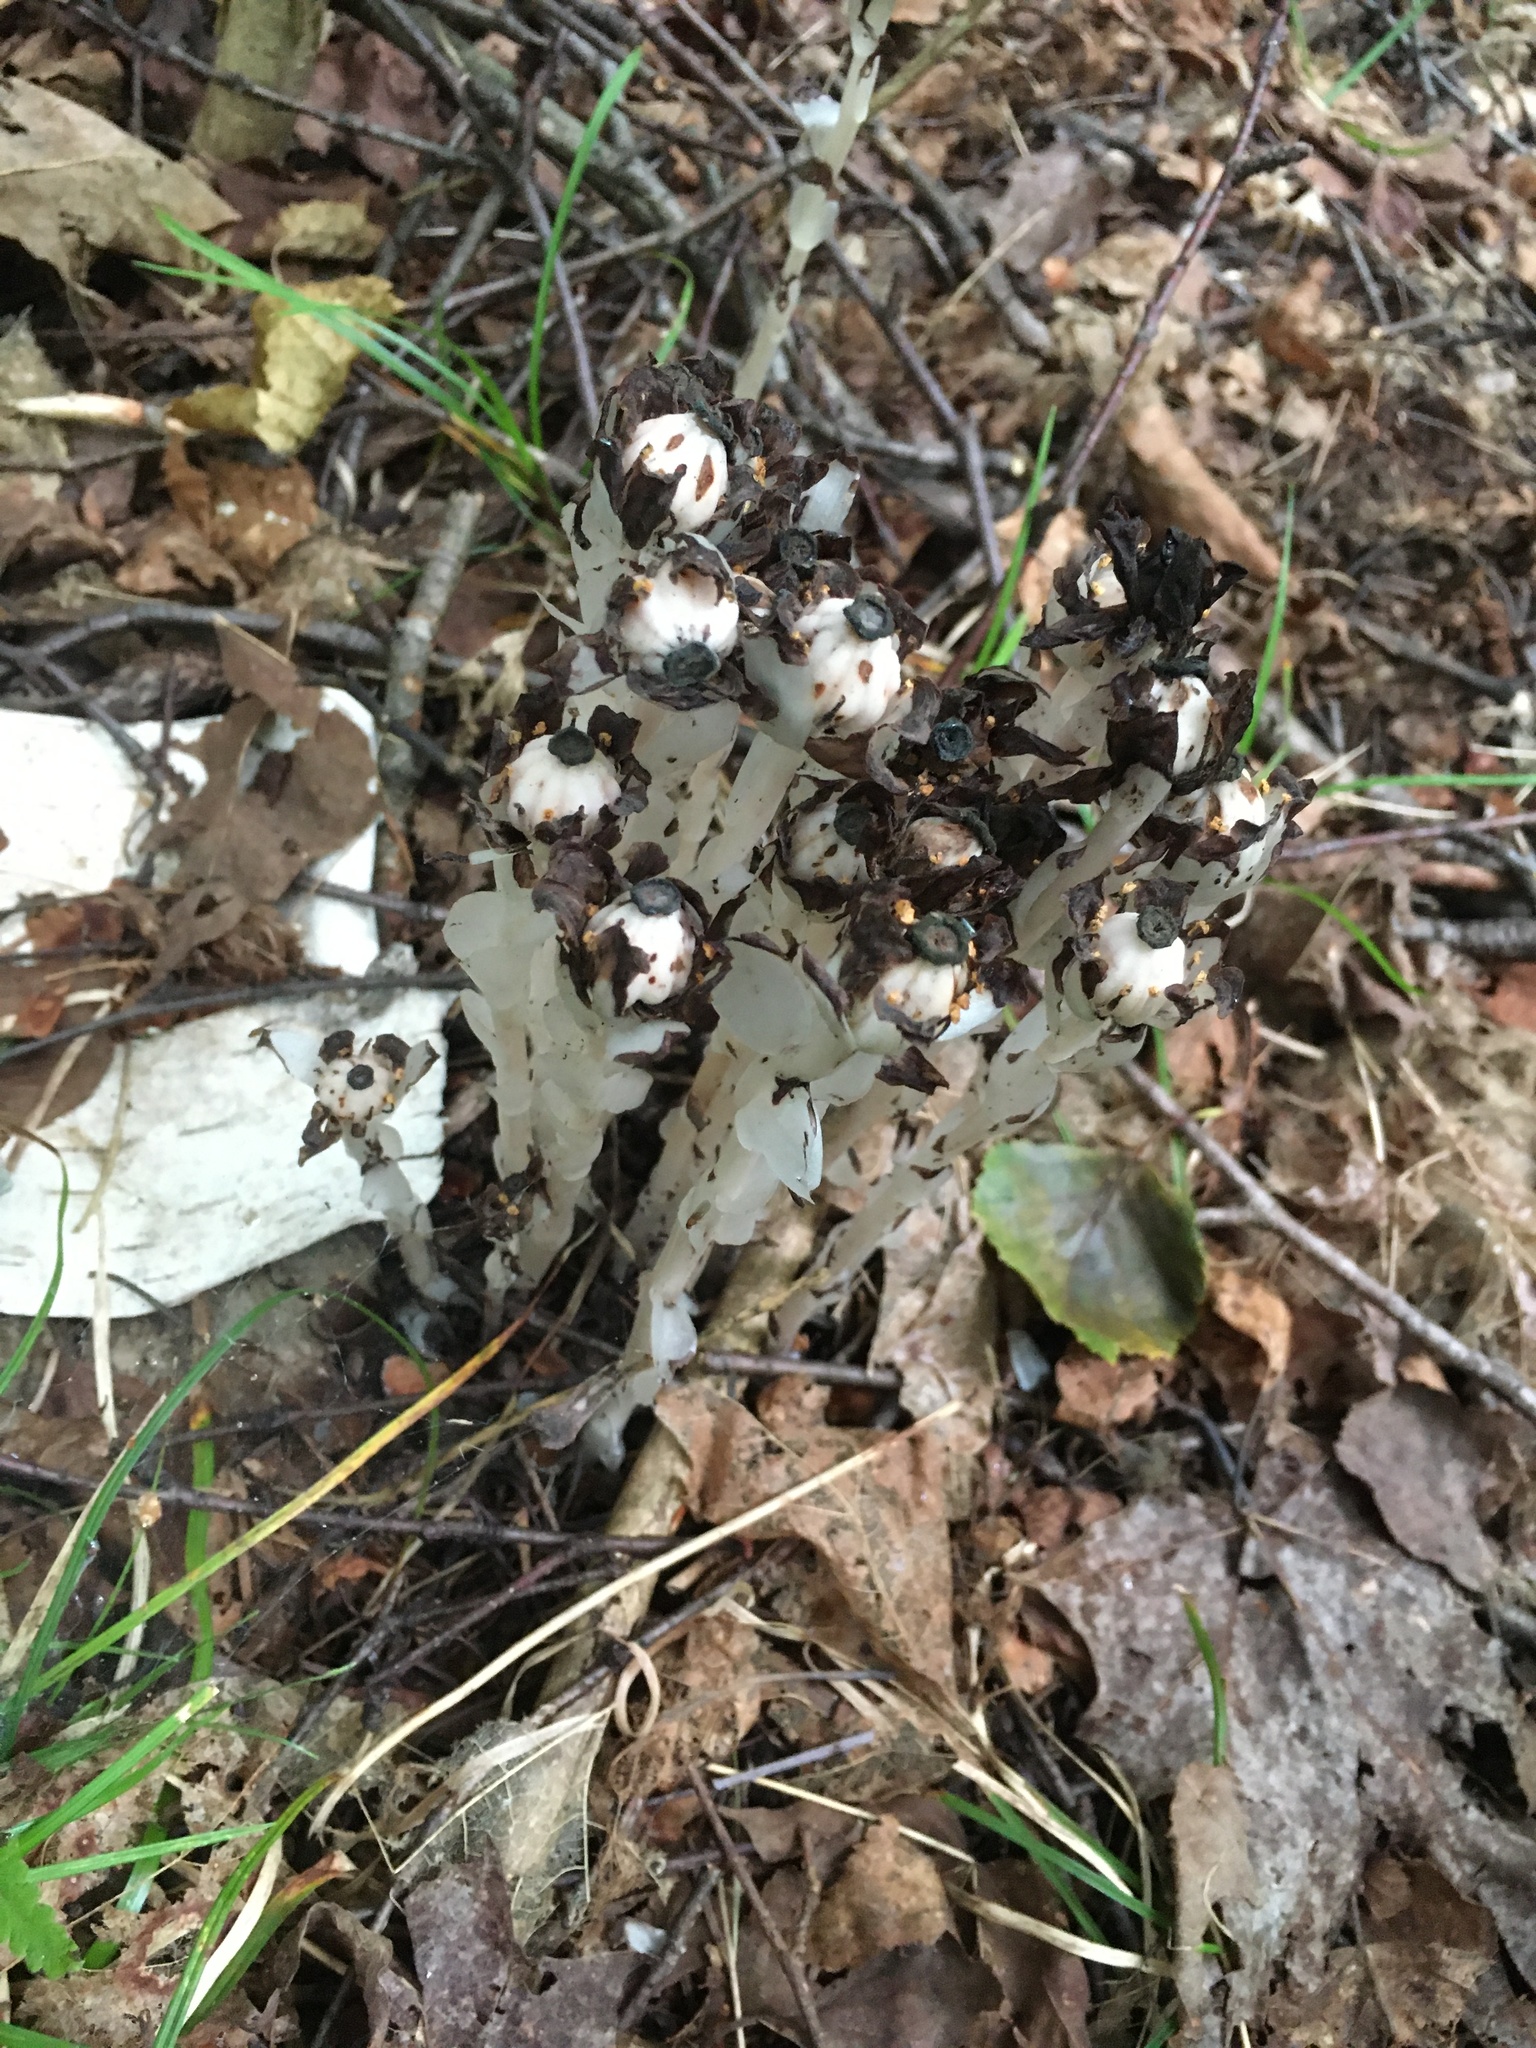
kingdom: Plantae
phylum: Tracheophyta
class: Magnoliopsida
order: Ericales
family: Ericaceae
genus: Monotropa
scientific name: Monotropa uniflora
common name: Convulsion root
